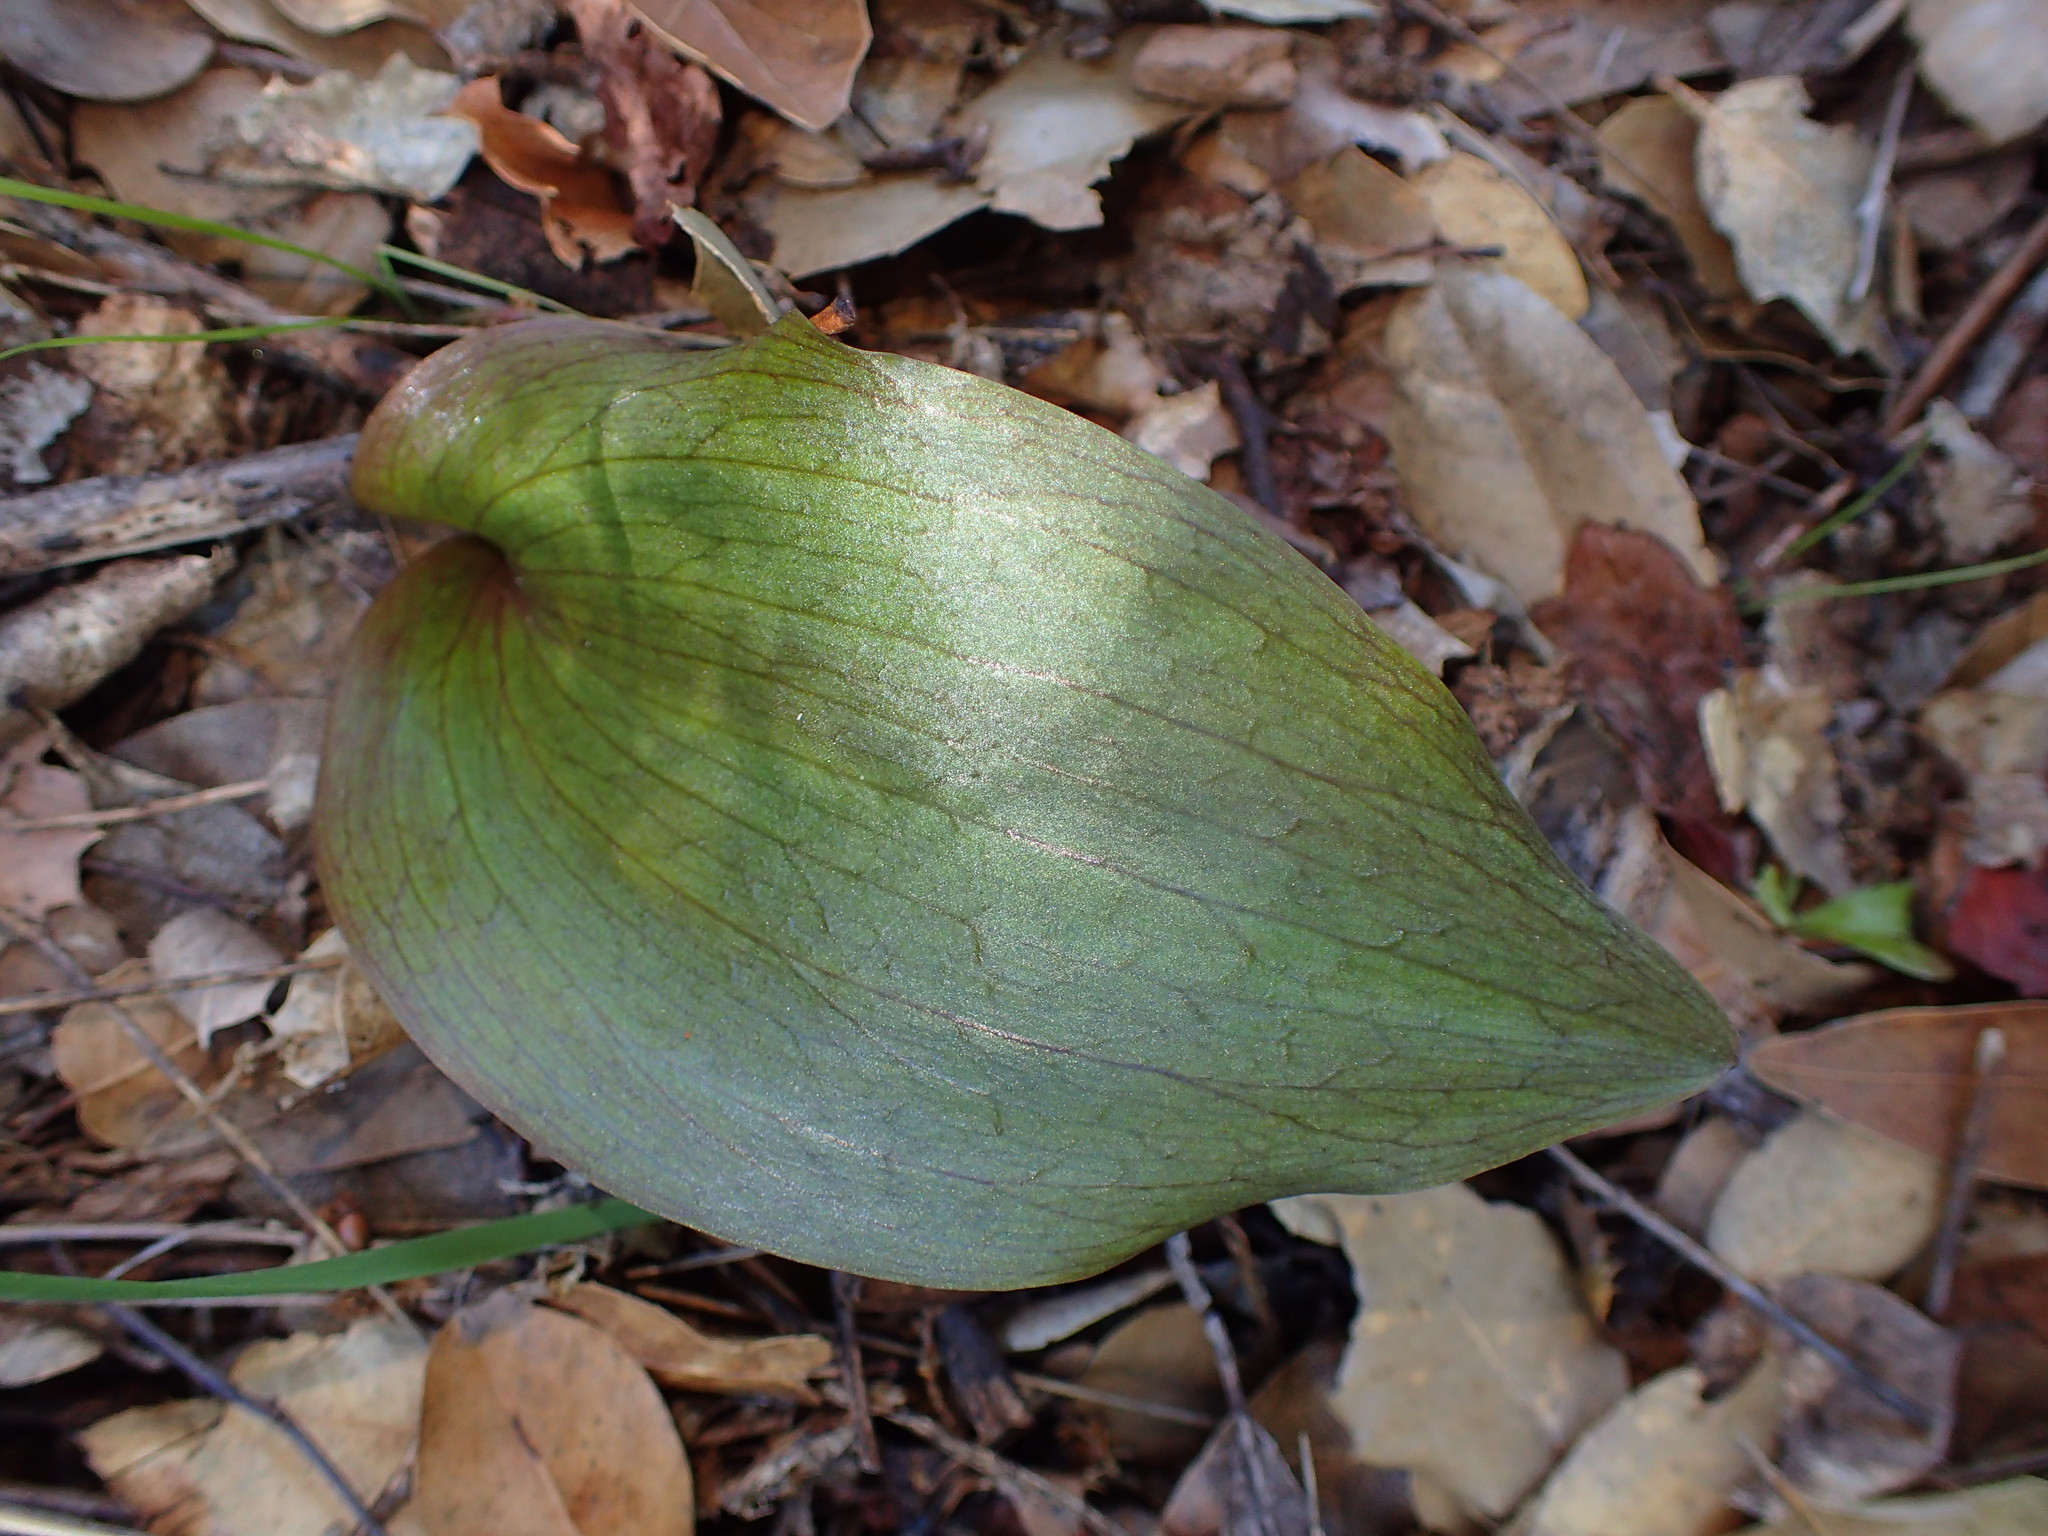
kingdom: Plantae
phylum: Tracheophyta
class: Liliopsida
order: Liliales
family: Liliaceae
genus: Fritillaria
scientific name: Fritillaria ojaiensis
